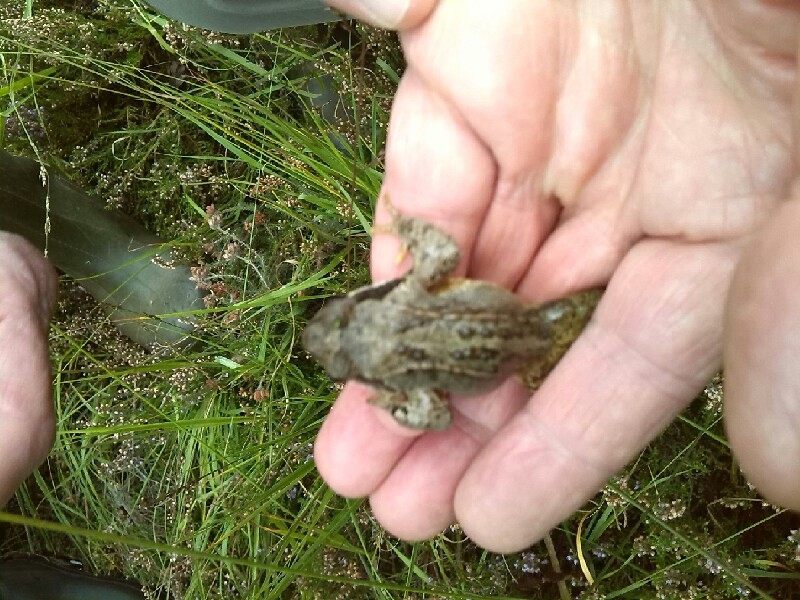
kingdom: Animalia
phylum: Chordata
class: Amphibia
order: Anura
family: Ranidae
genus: Rana
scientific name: Rana temporaria
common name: Common frog
